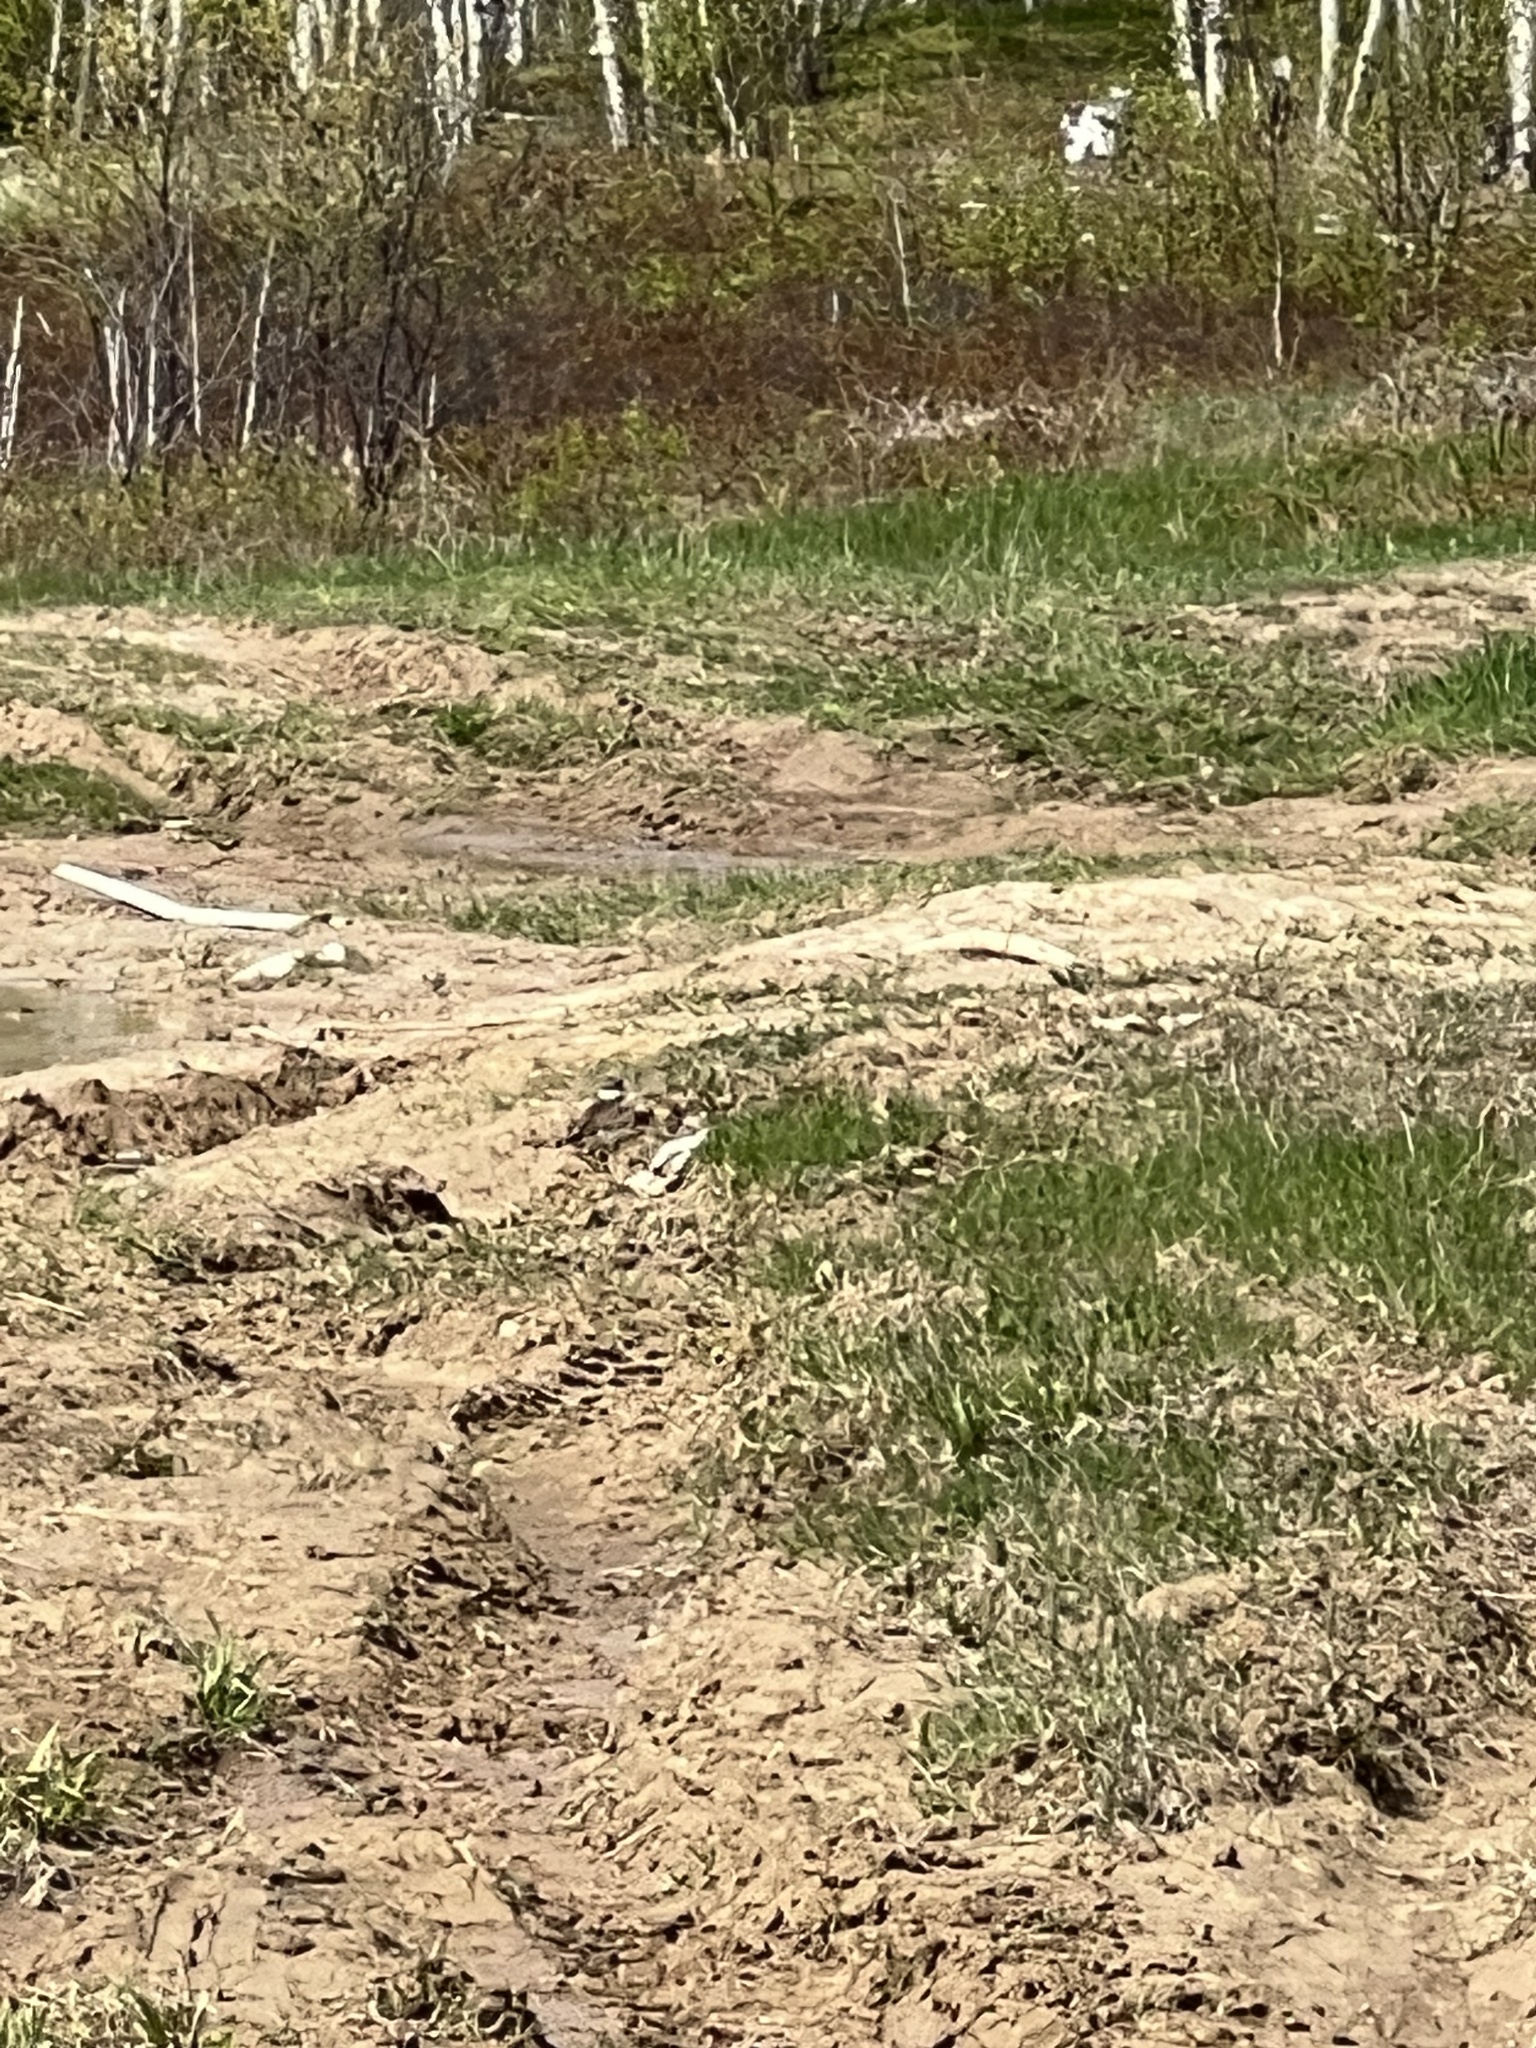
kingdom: Animalia
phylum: Chordata
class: Aves
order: Charadriiformes
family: Charadriidae
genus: Charadrius
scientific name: Charadrius vociferus
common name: Killdeer
